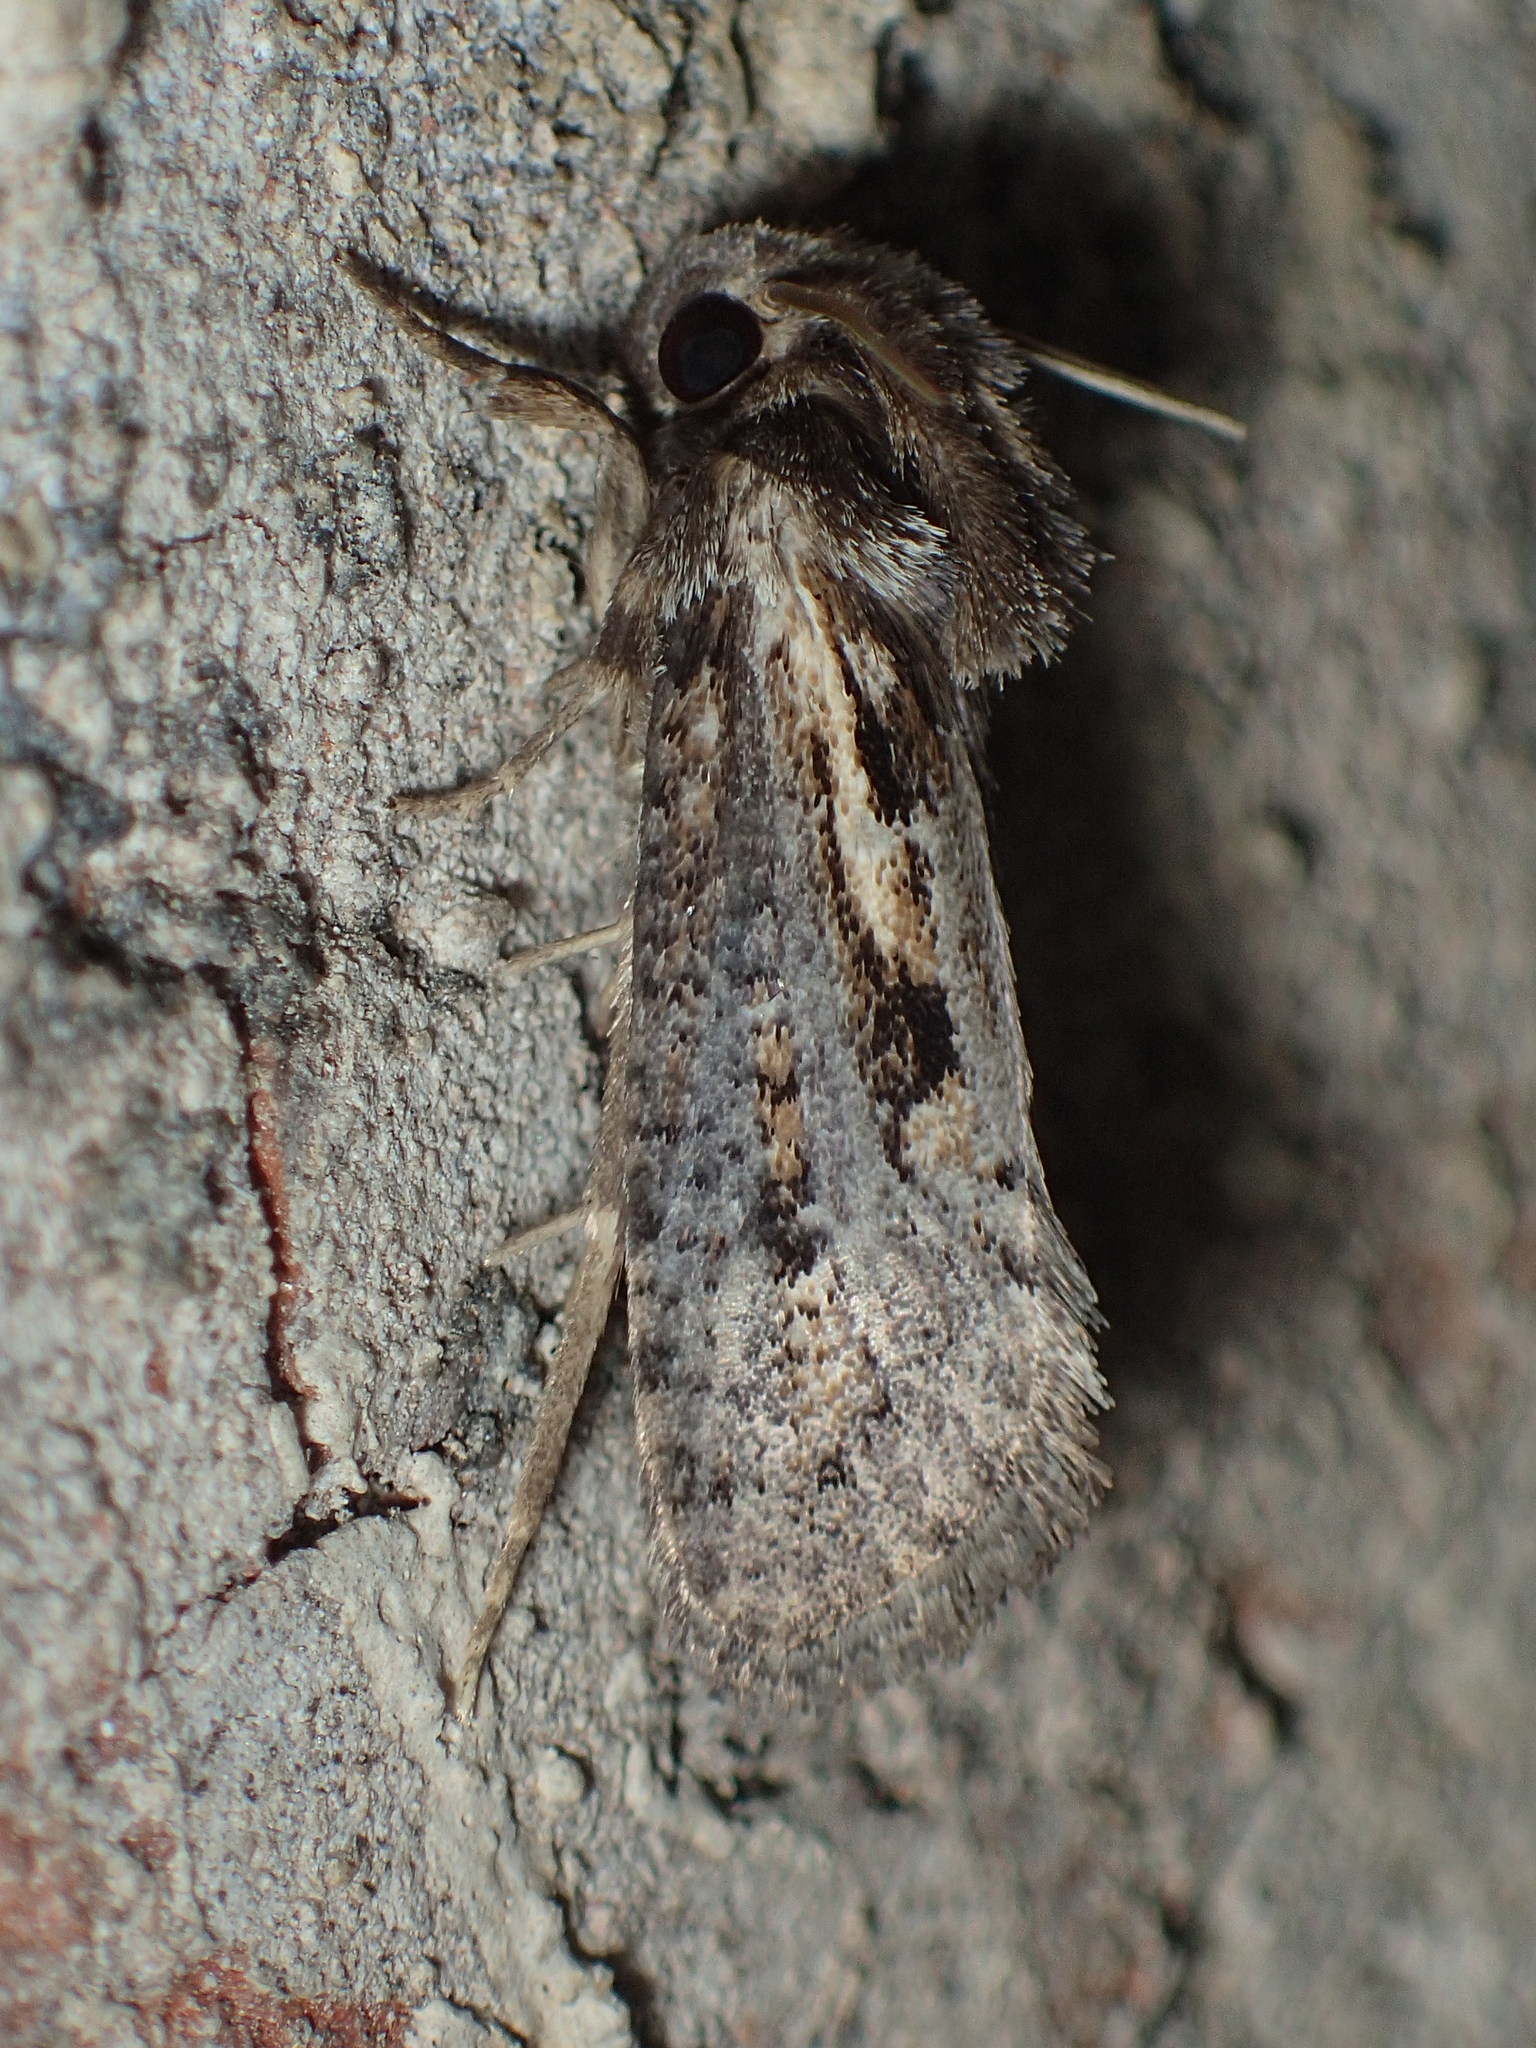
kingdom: Animalia
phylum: Arthropoda
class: Insecta
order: Lepidoptera
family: Tineidae
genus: Acrolophus
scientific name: Acrolophus popeanella
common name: Clemens' grass tubeworm moth
